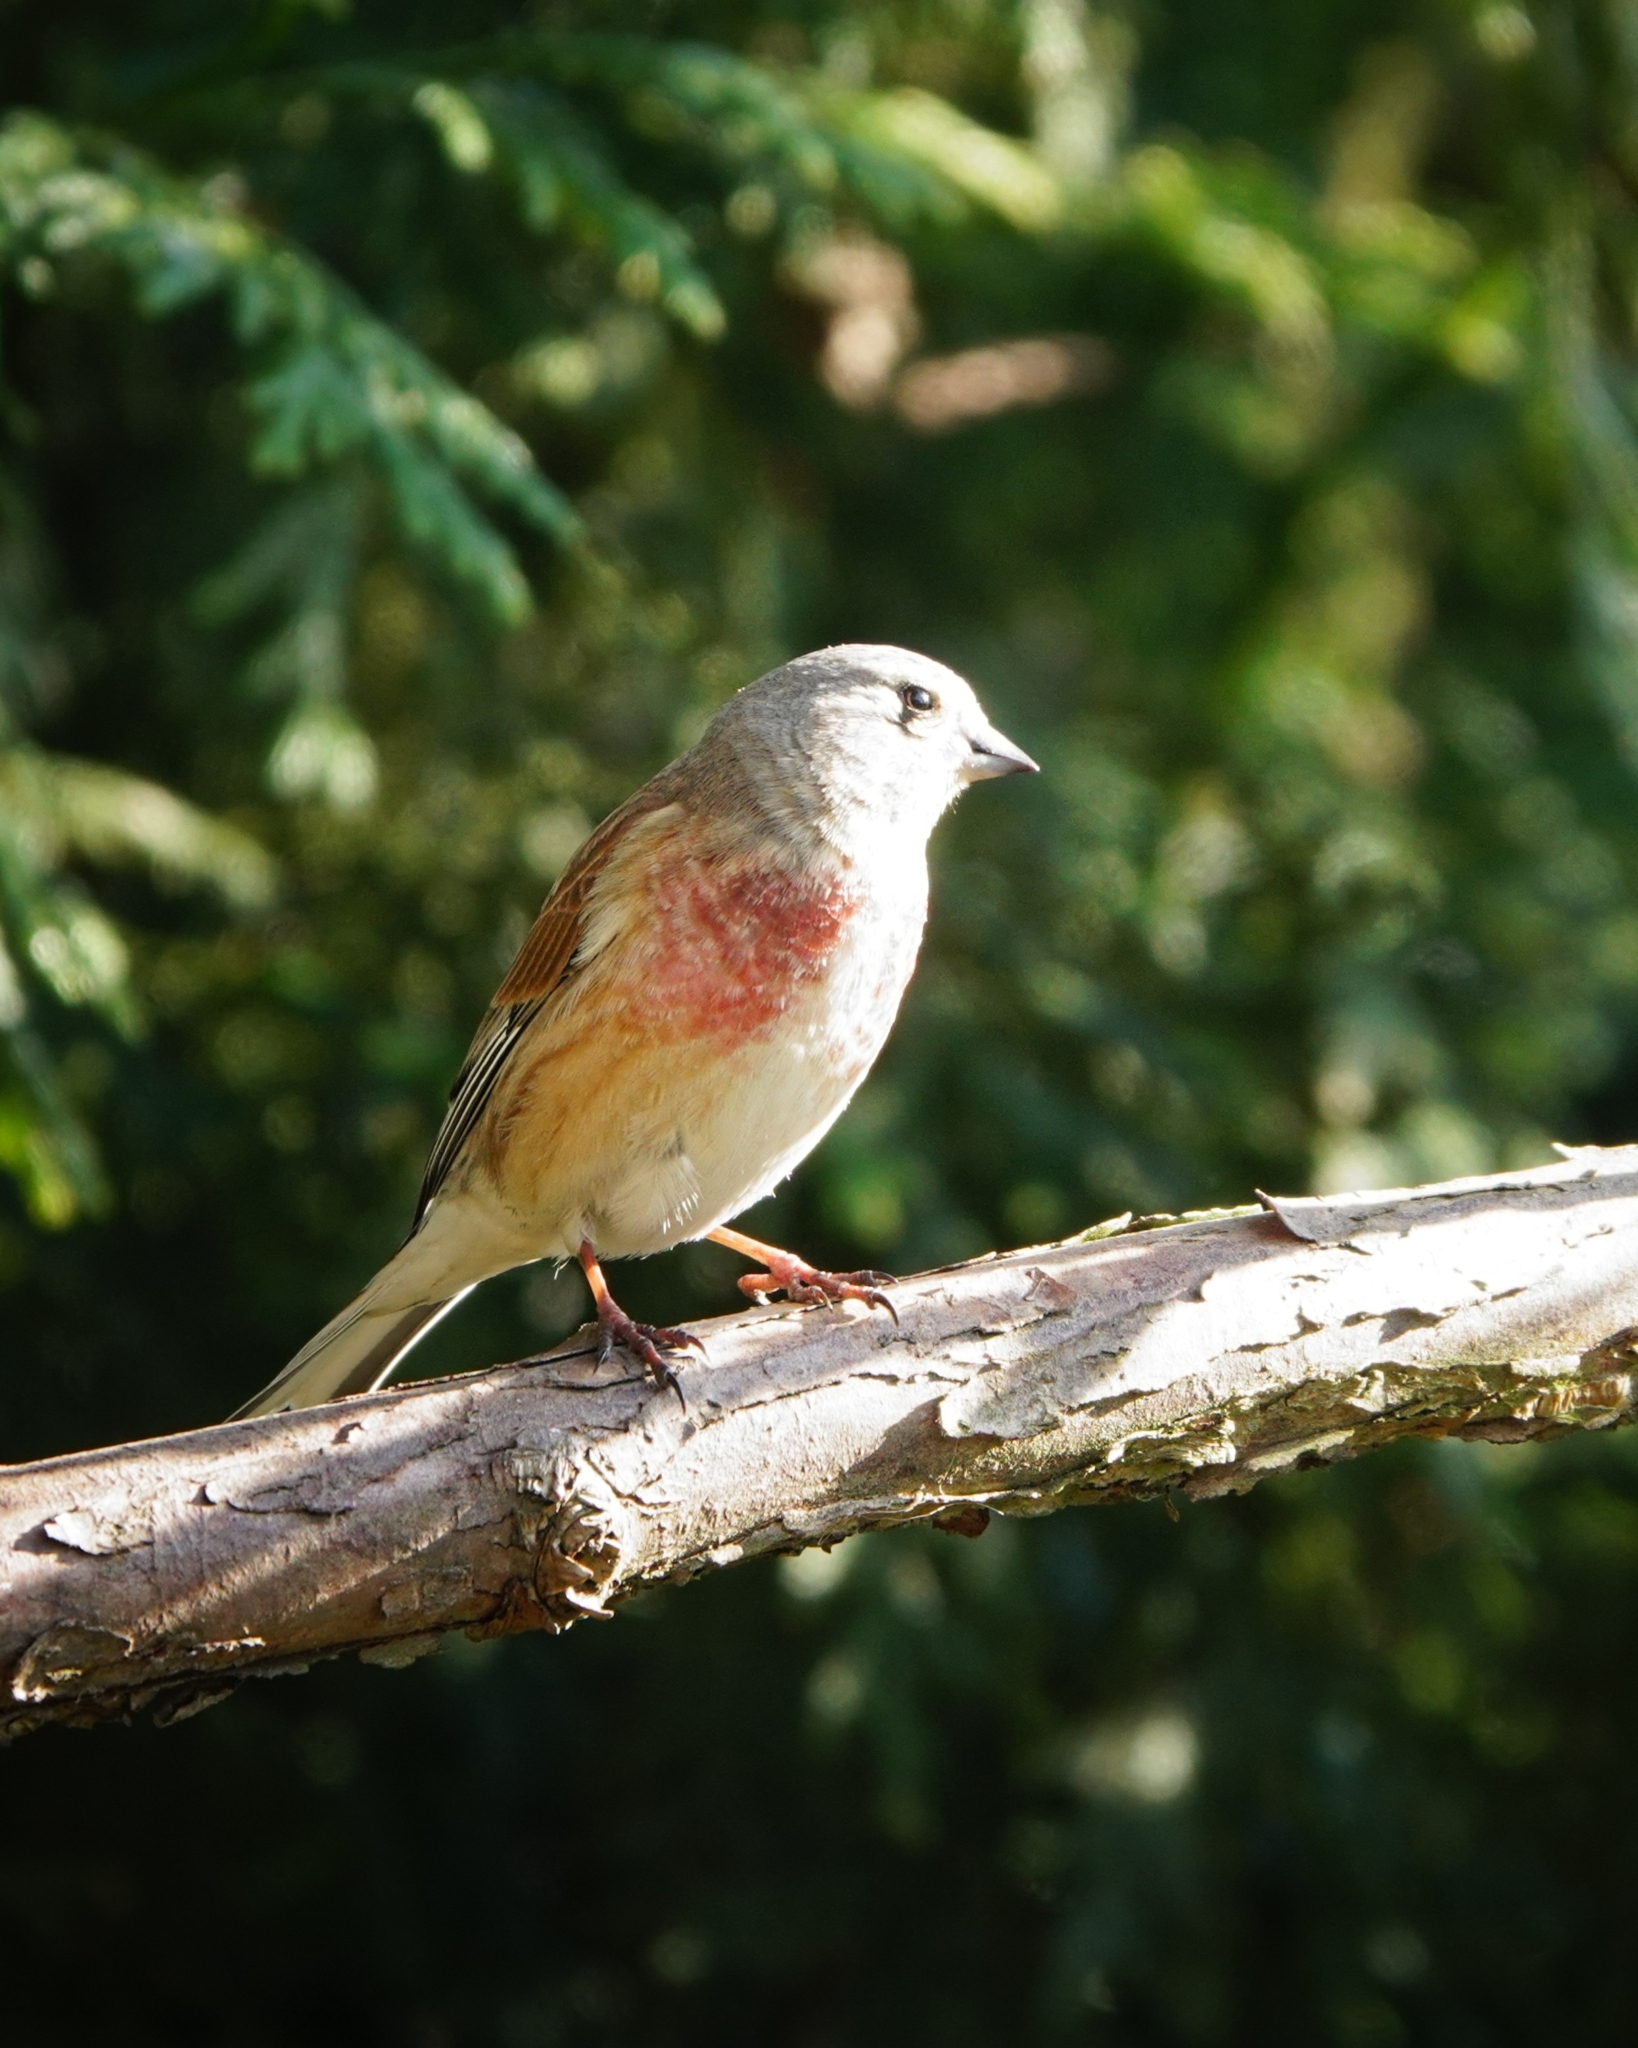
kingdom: Animalia
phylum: Chordata
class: Aves
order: Passeriformes
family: Fringillidae
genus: Linaria
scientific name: Linaria cannabina
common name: Common linnet
